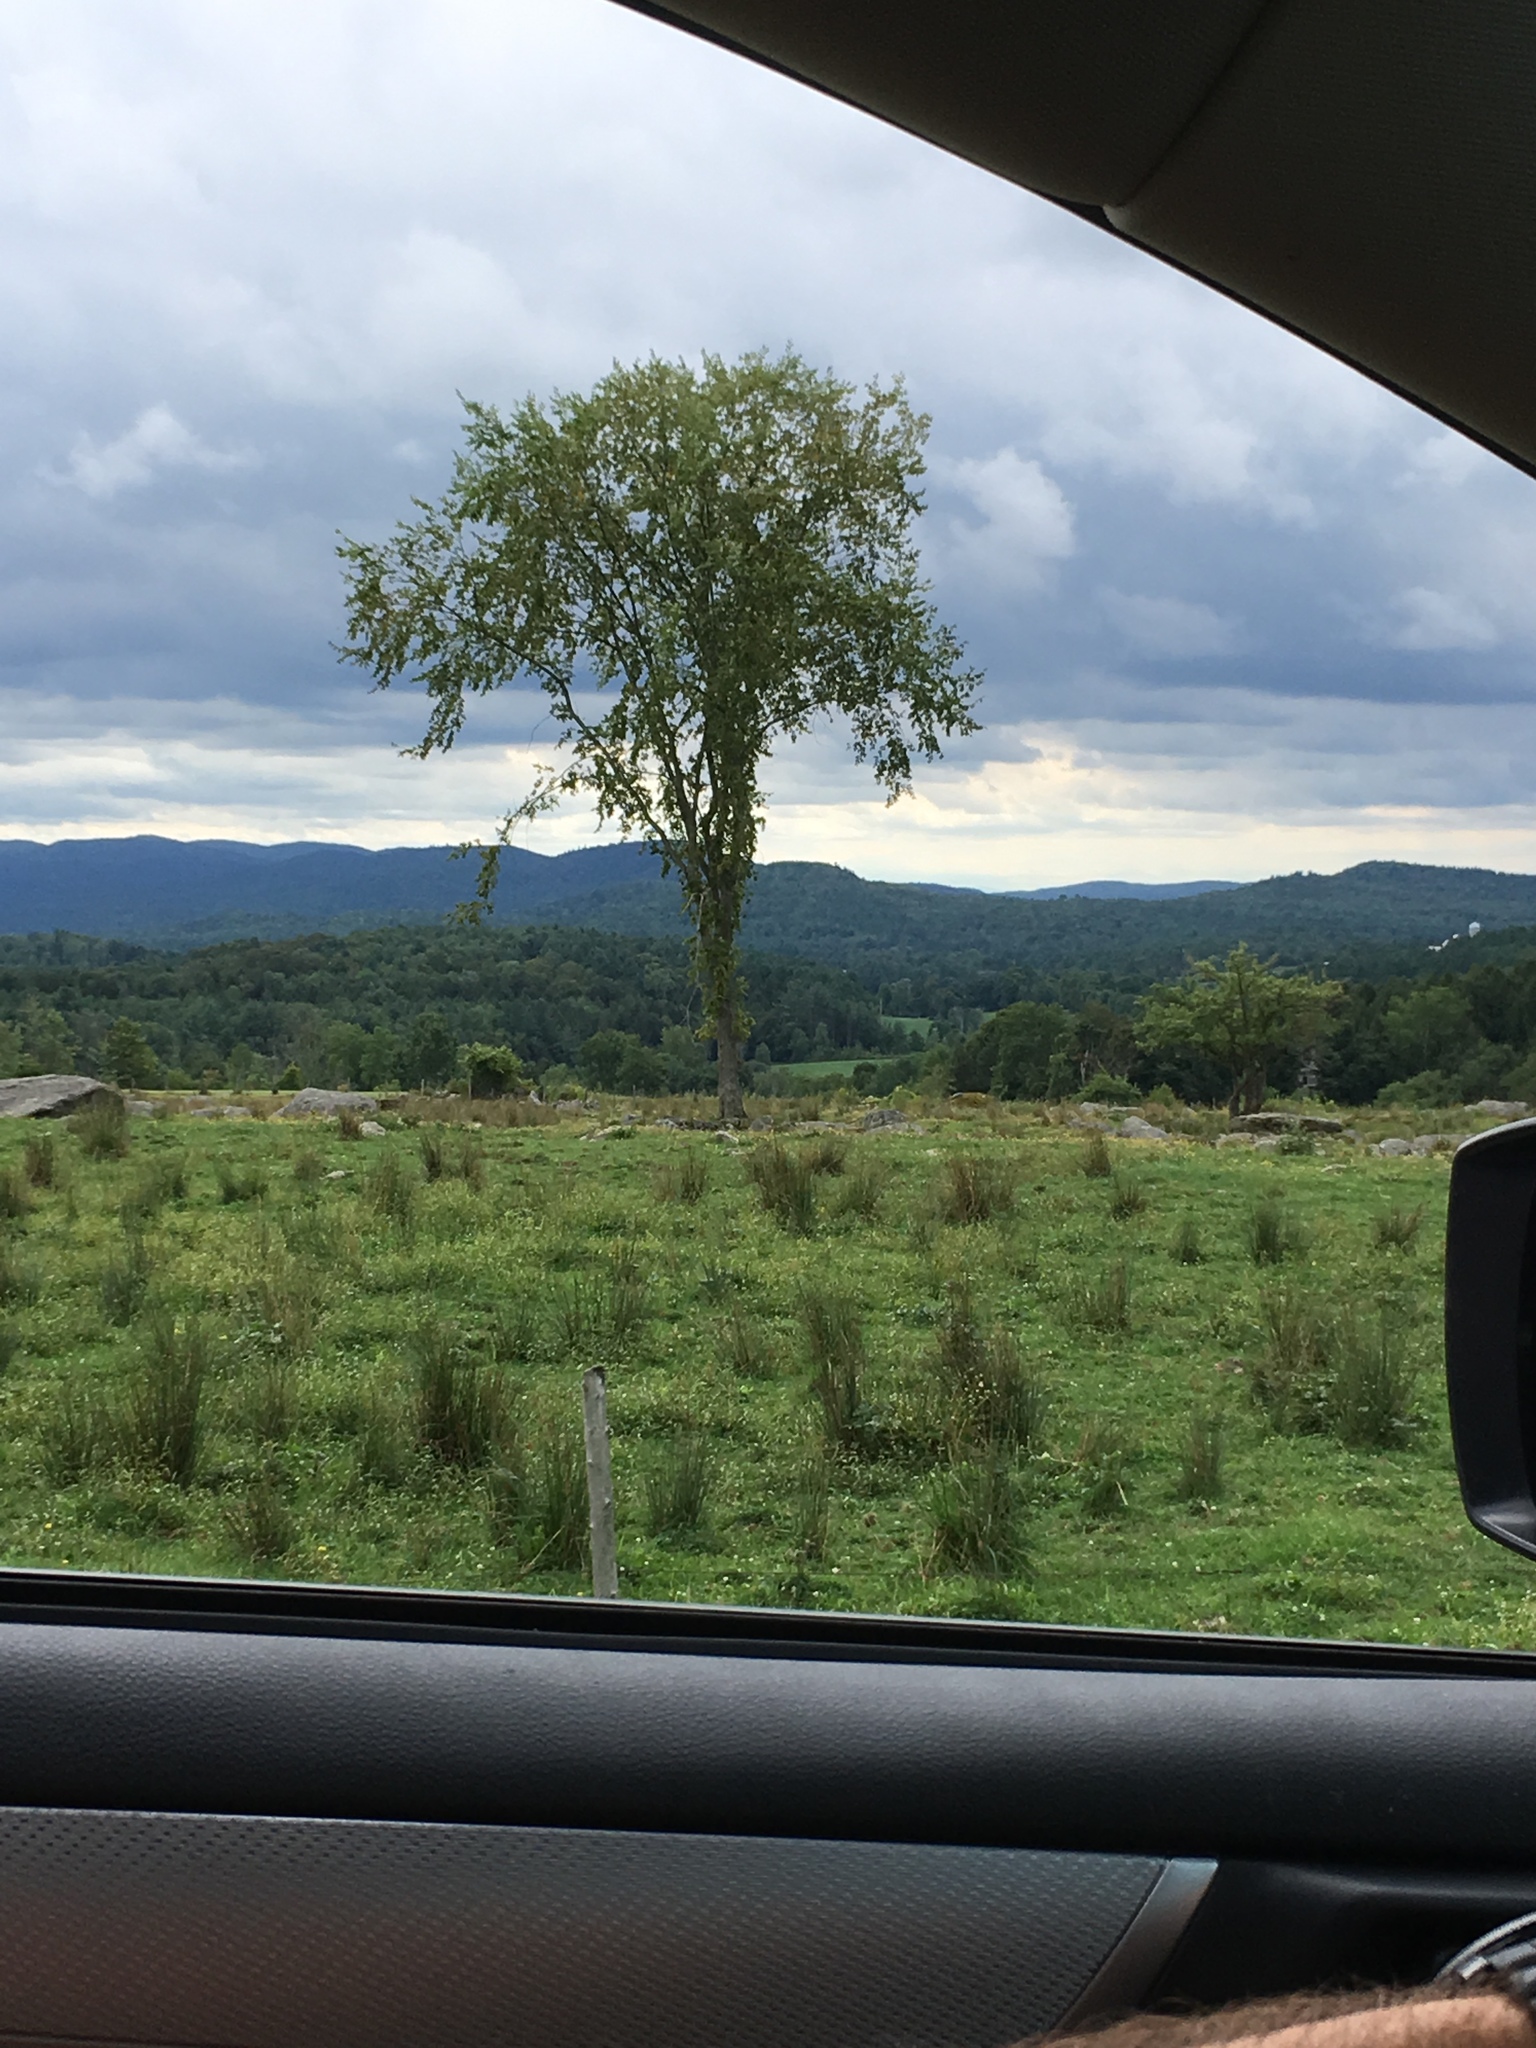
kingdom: Plantae
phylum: Tracheophyta
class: Magnoliopsida
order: Rosales
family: Ulmaceae
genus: Ulmus
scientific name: Ulmus americana
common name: American elm
